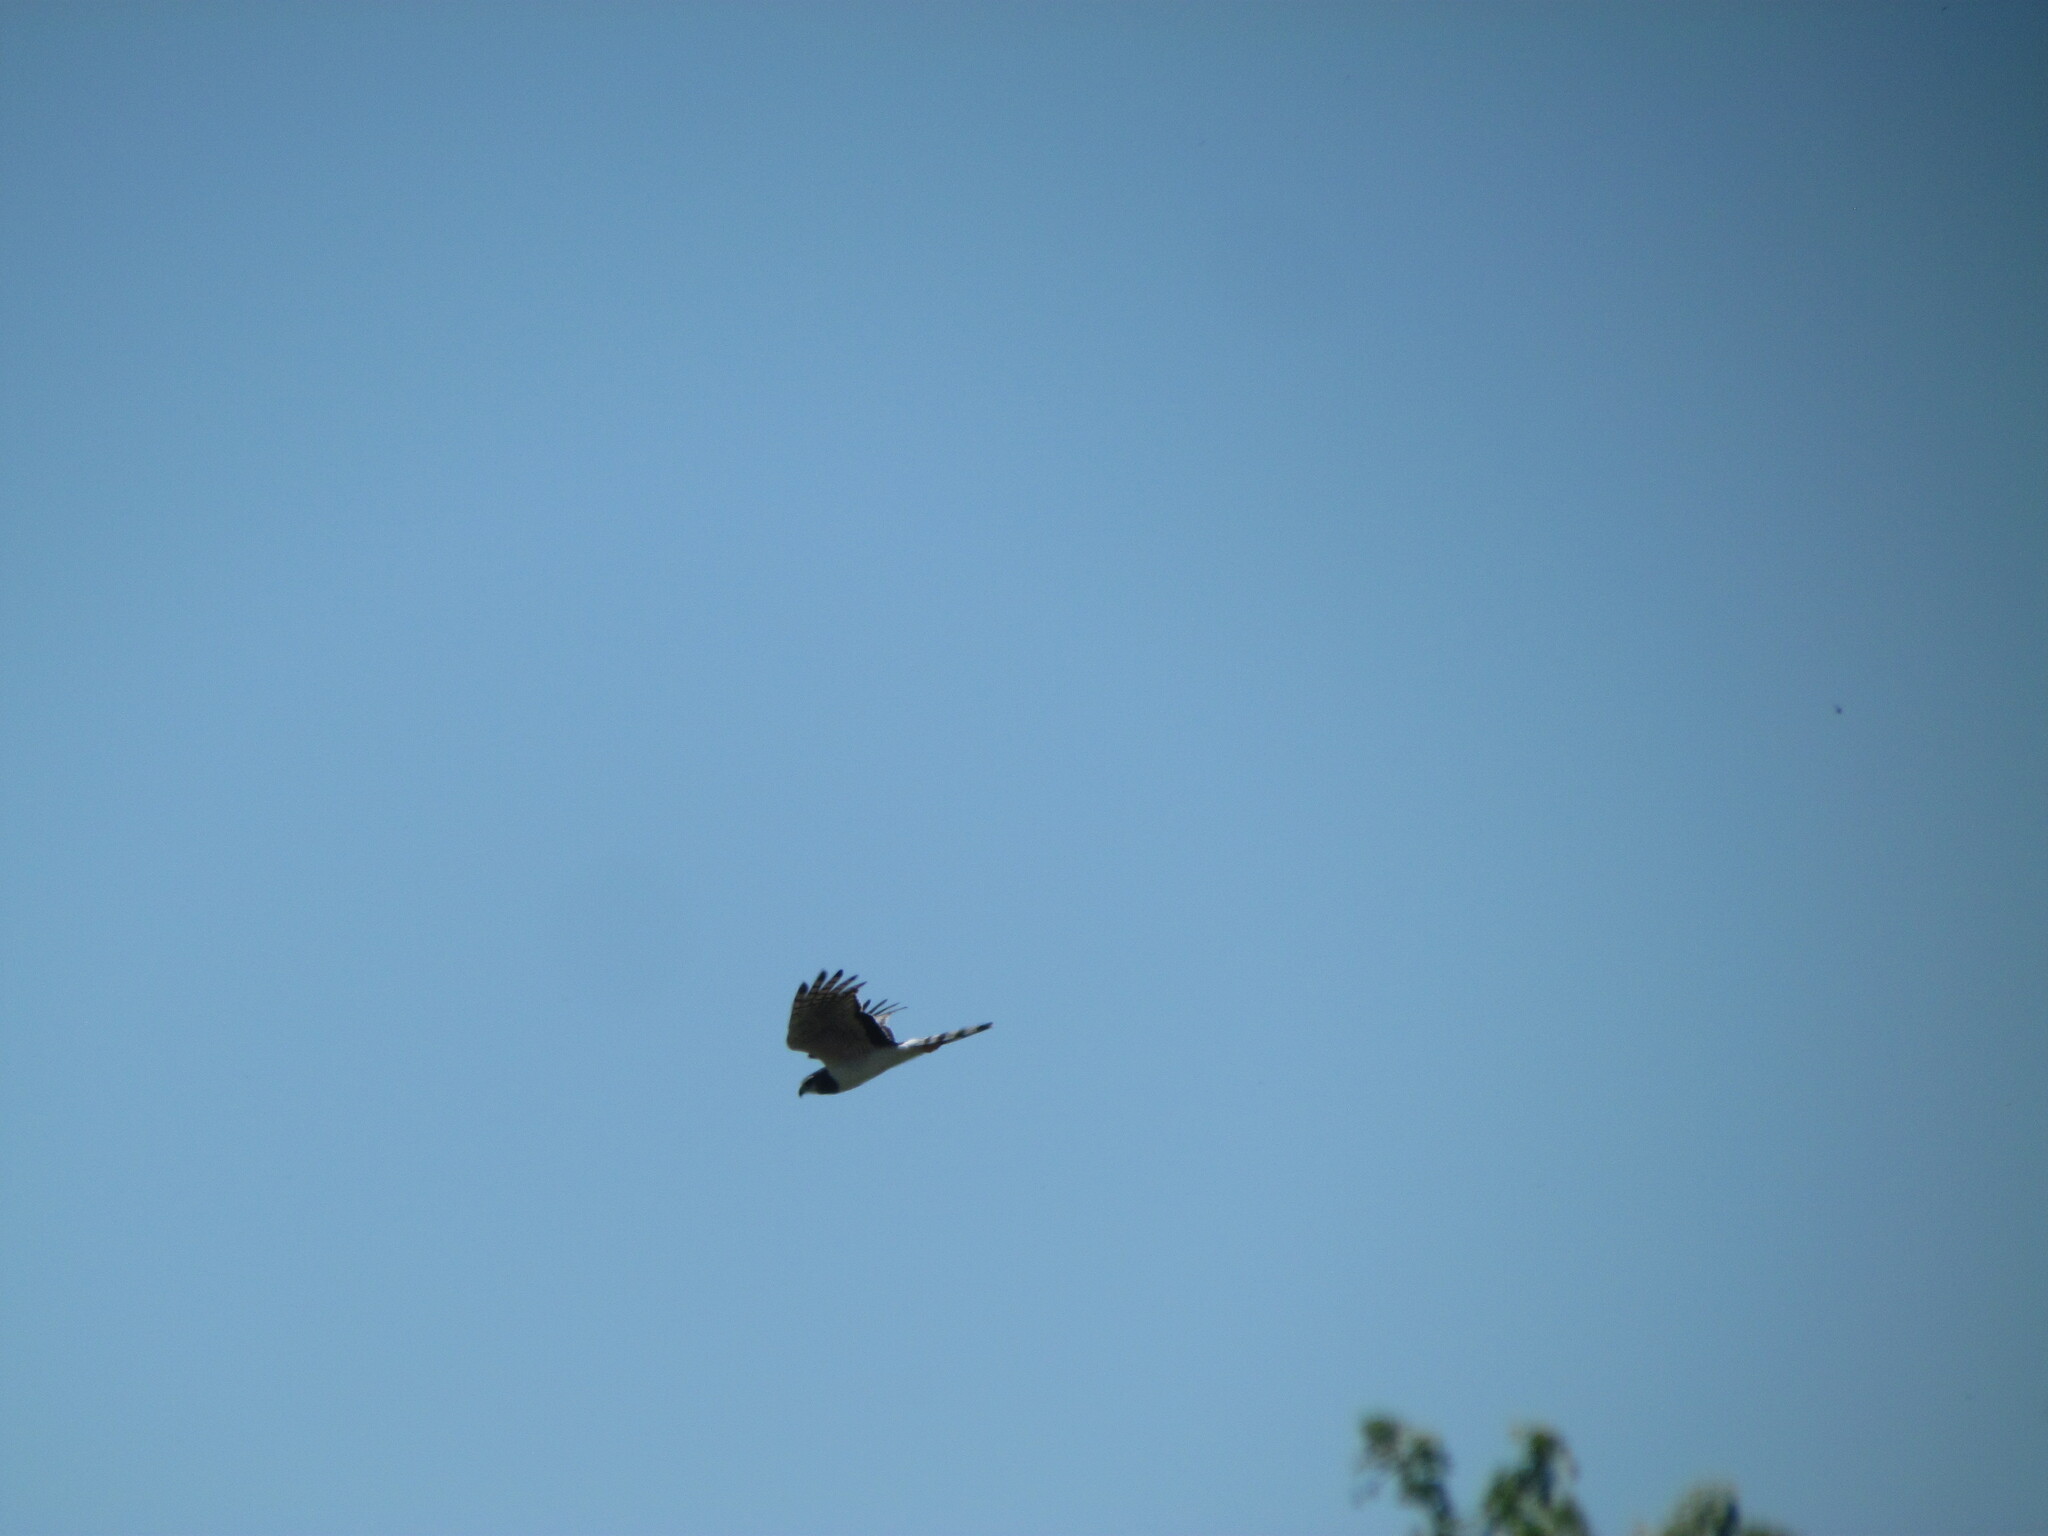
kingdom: Animalia
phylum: Chordata
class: Aves
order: Accipitriformes
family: Accipitridae
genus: Circus
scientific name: Circus buffoni
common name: Long-winged harrier
